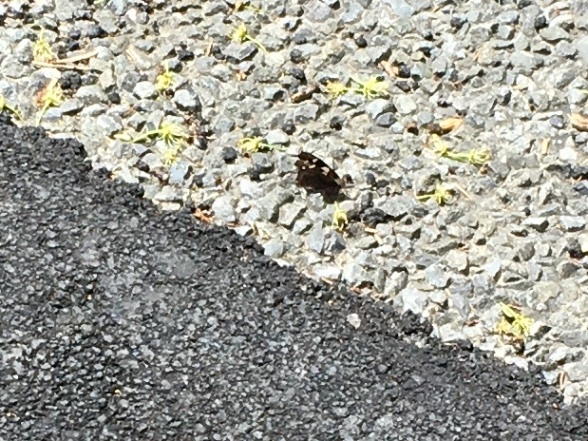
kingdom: Animalia
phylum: Arthropoda
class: Insecta
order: Lepidoptera
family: Nymphalidae
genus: Vanessa
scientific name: Vanessa itea
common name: Yellow admiral
